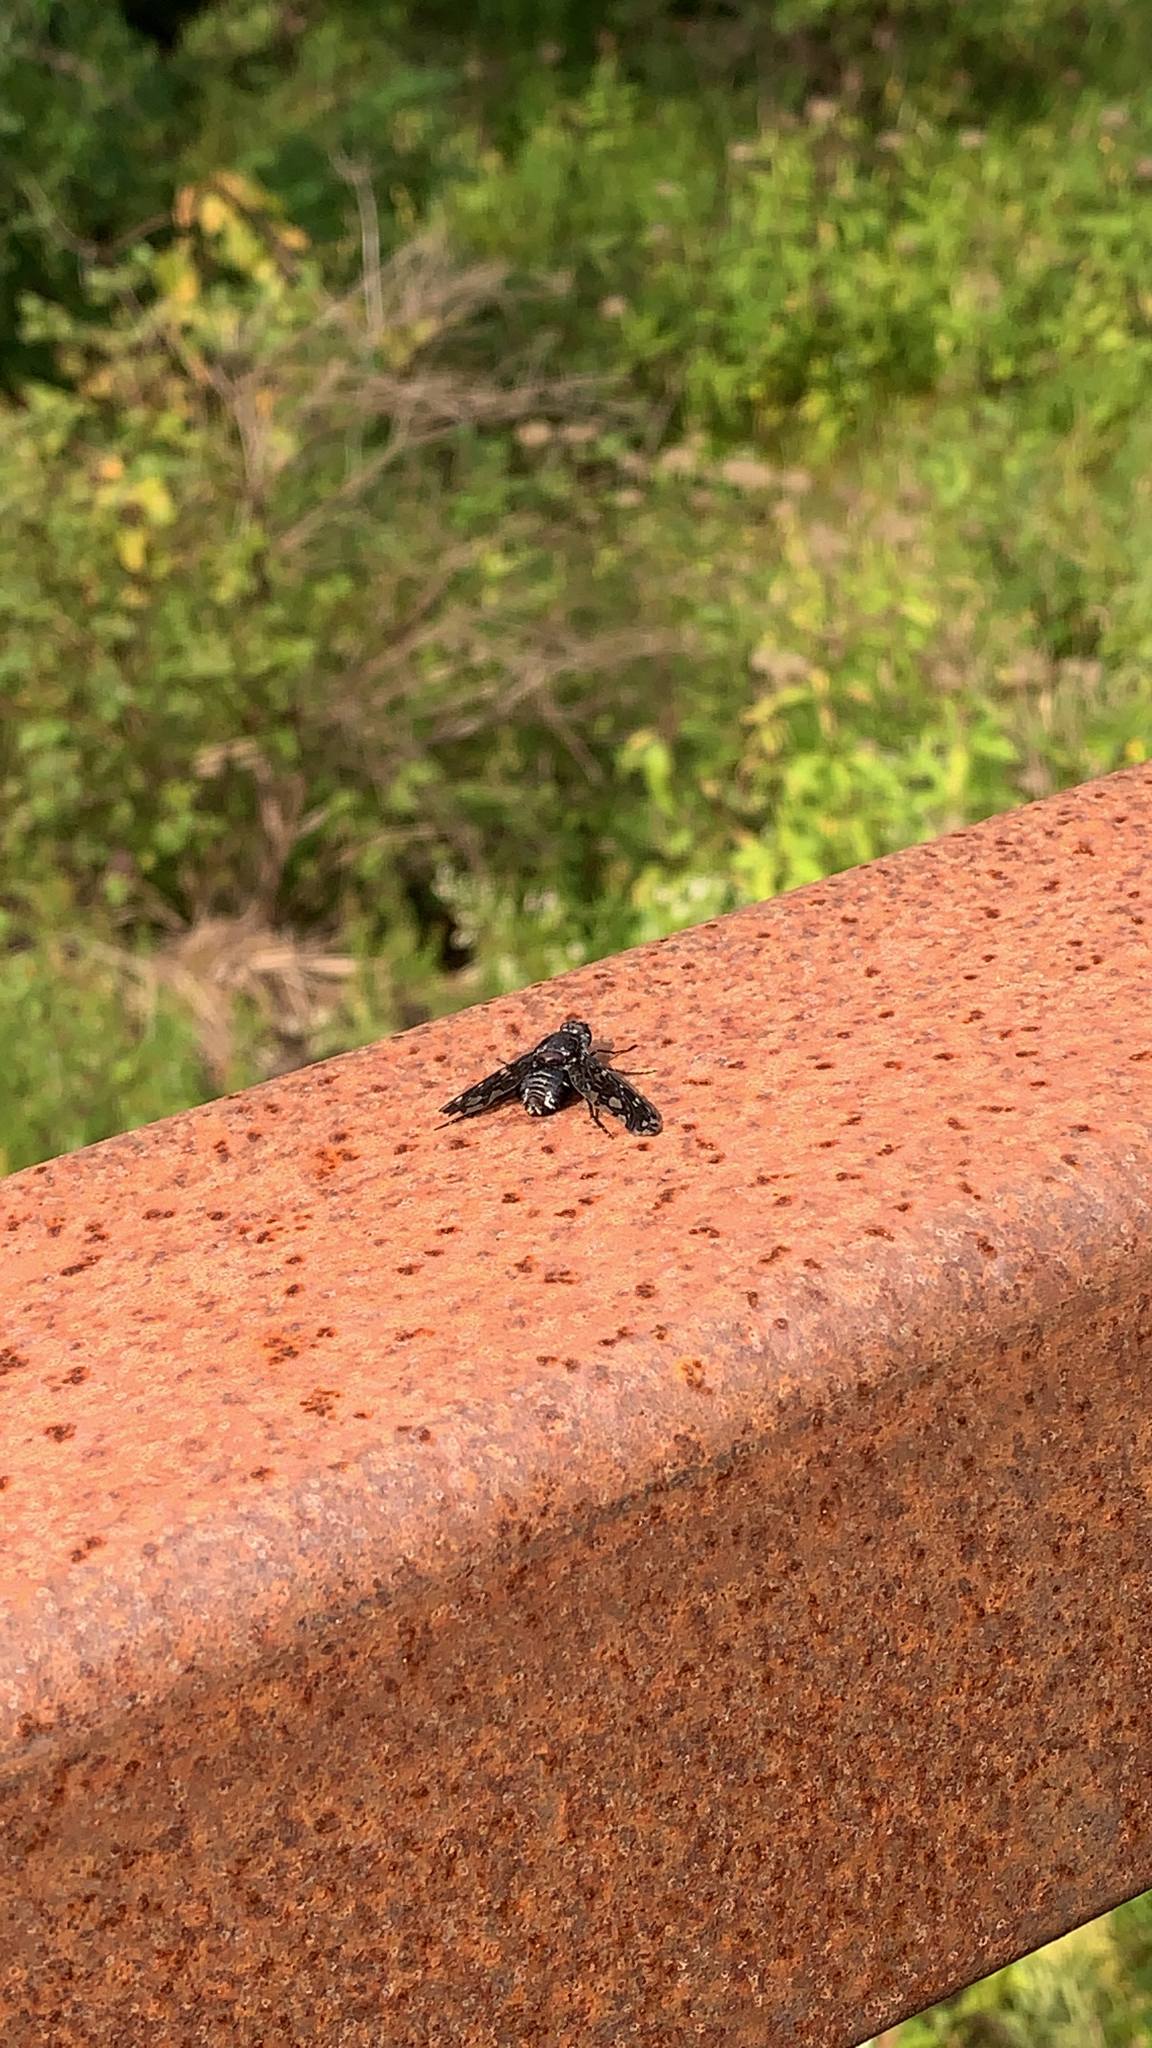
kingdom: Animalia
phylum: Arthropoda
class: Insecta
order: Diptera
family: Bombyliidae
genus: Xenox
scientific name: Xenox tigrinus
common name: Tiger bee fly
